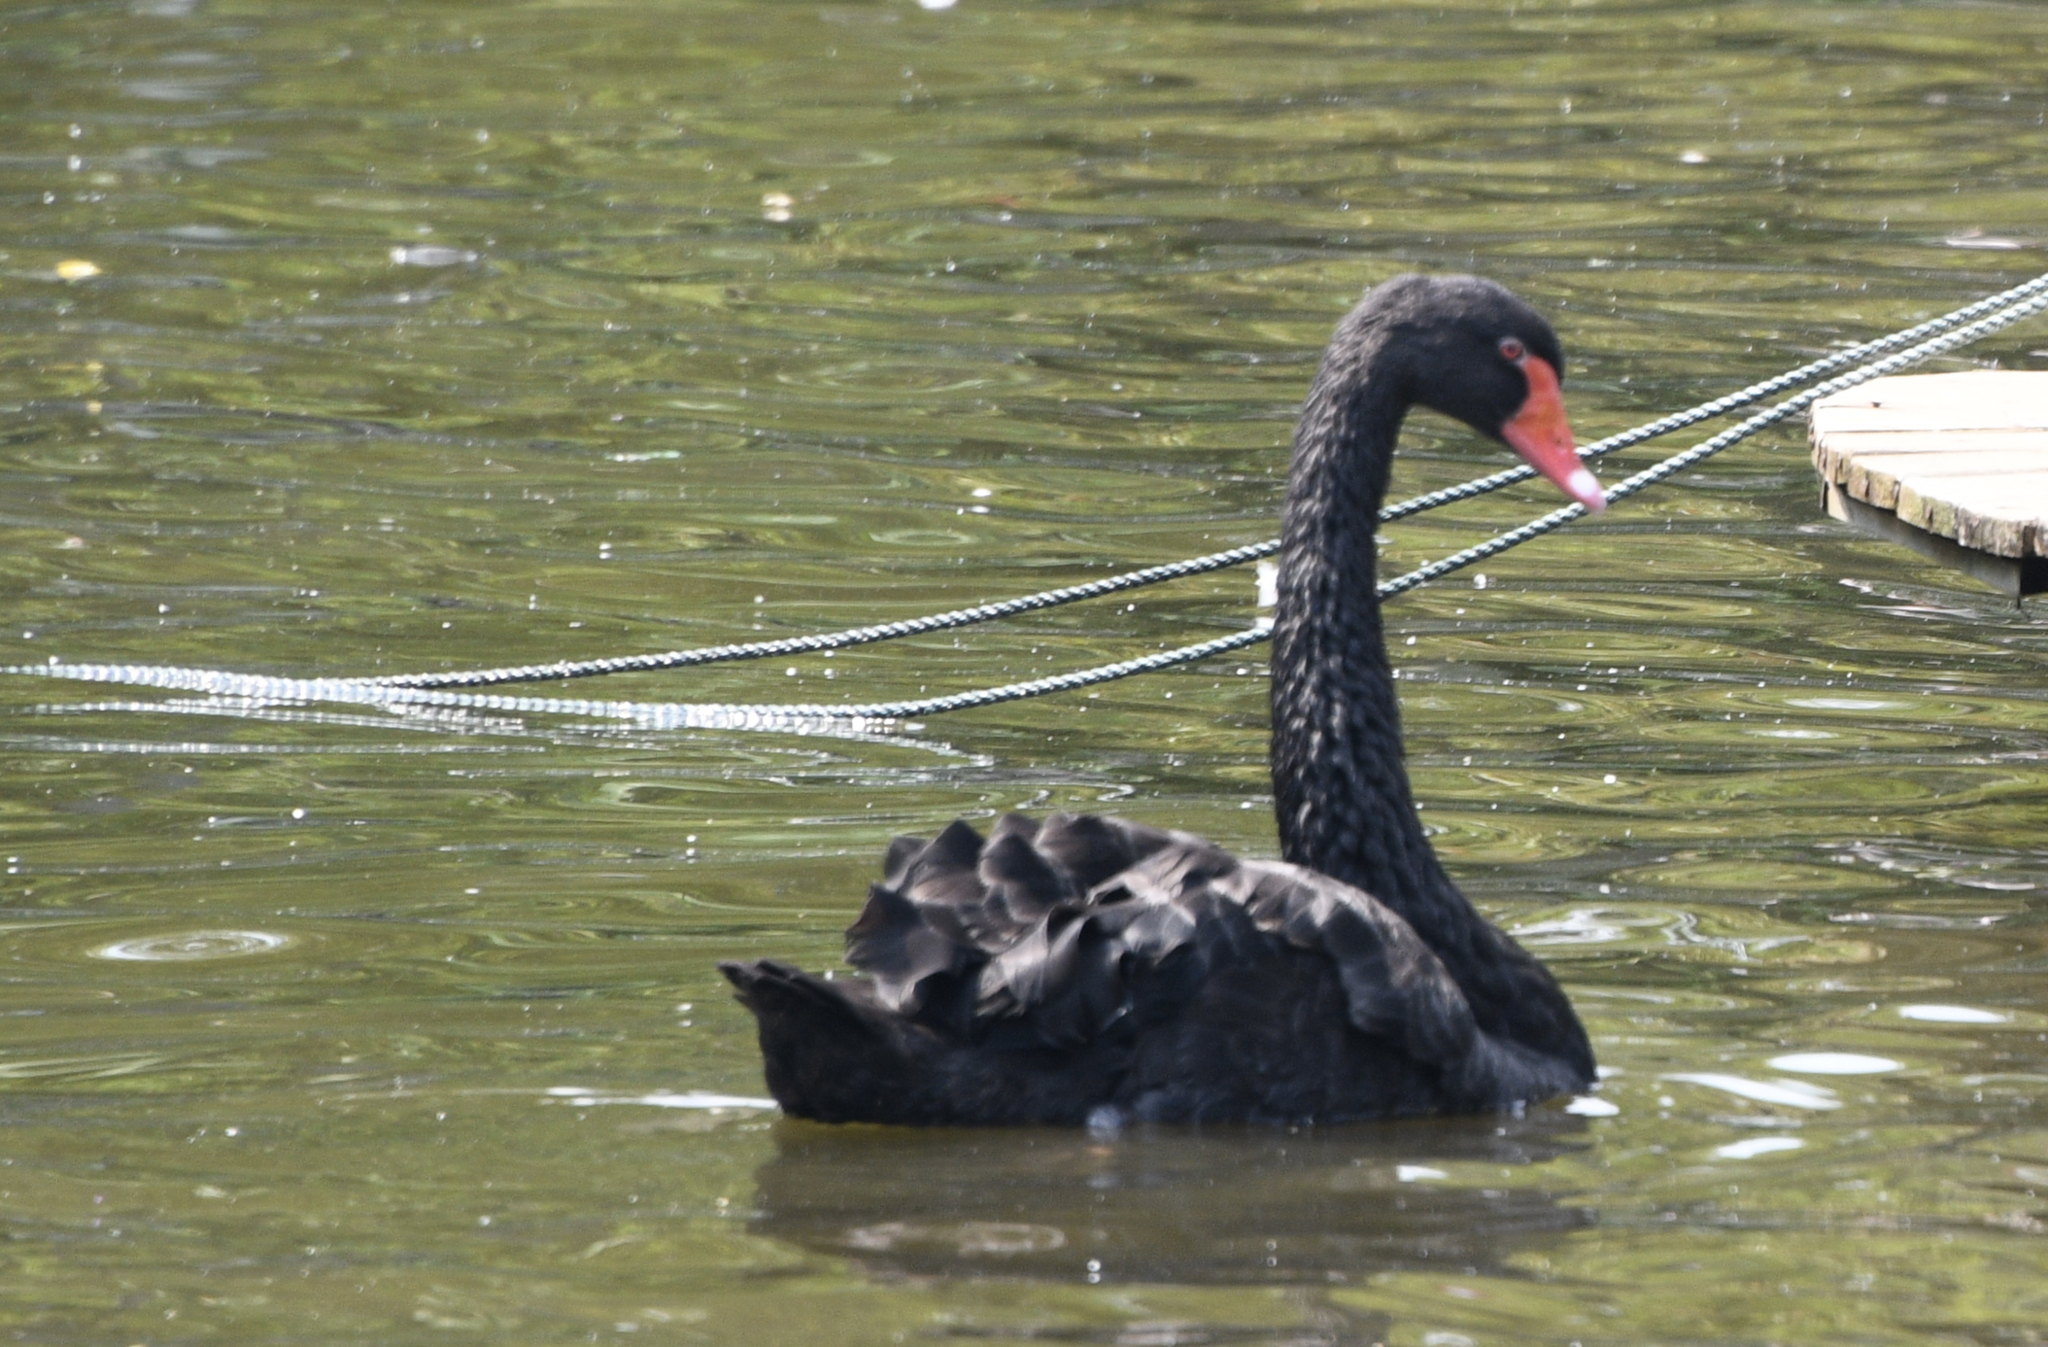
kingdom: Animalia
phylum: Chordata
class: Aves
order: Anseriformes
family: Anatidae
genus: Cygnus
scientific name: Cygnus atratus
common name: Black swan
